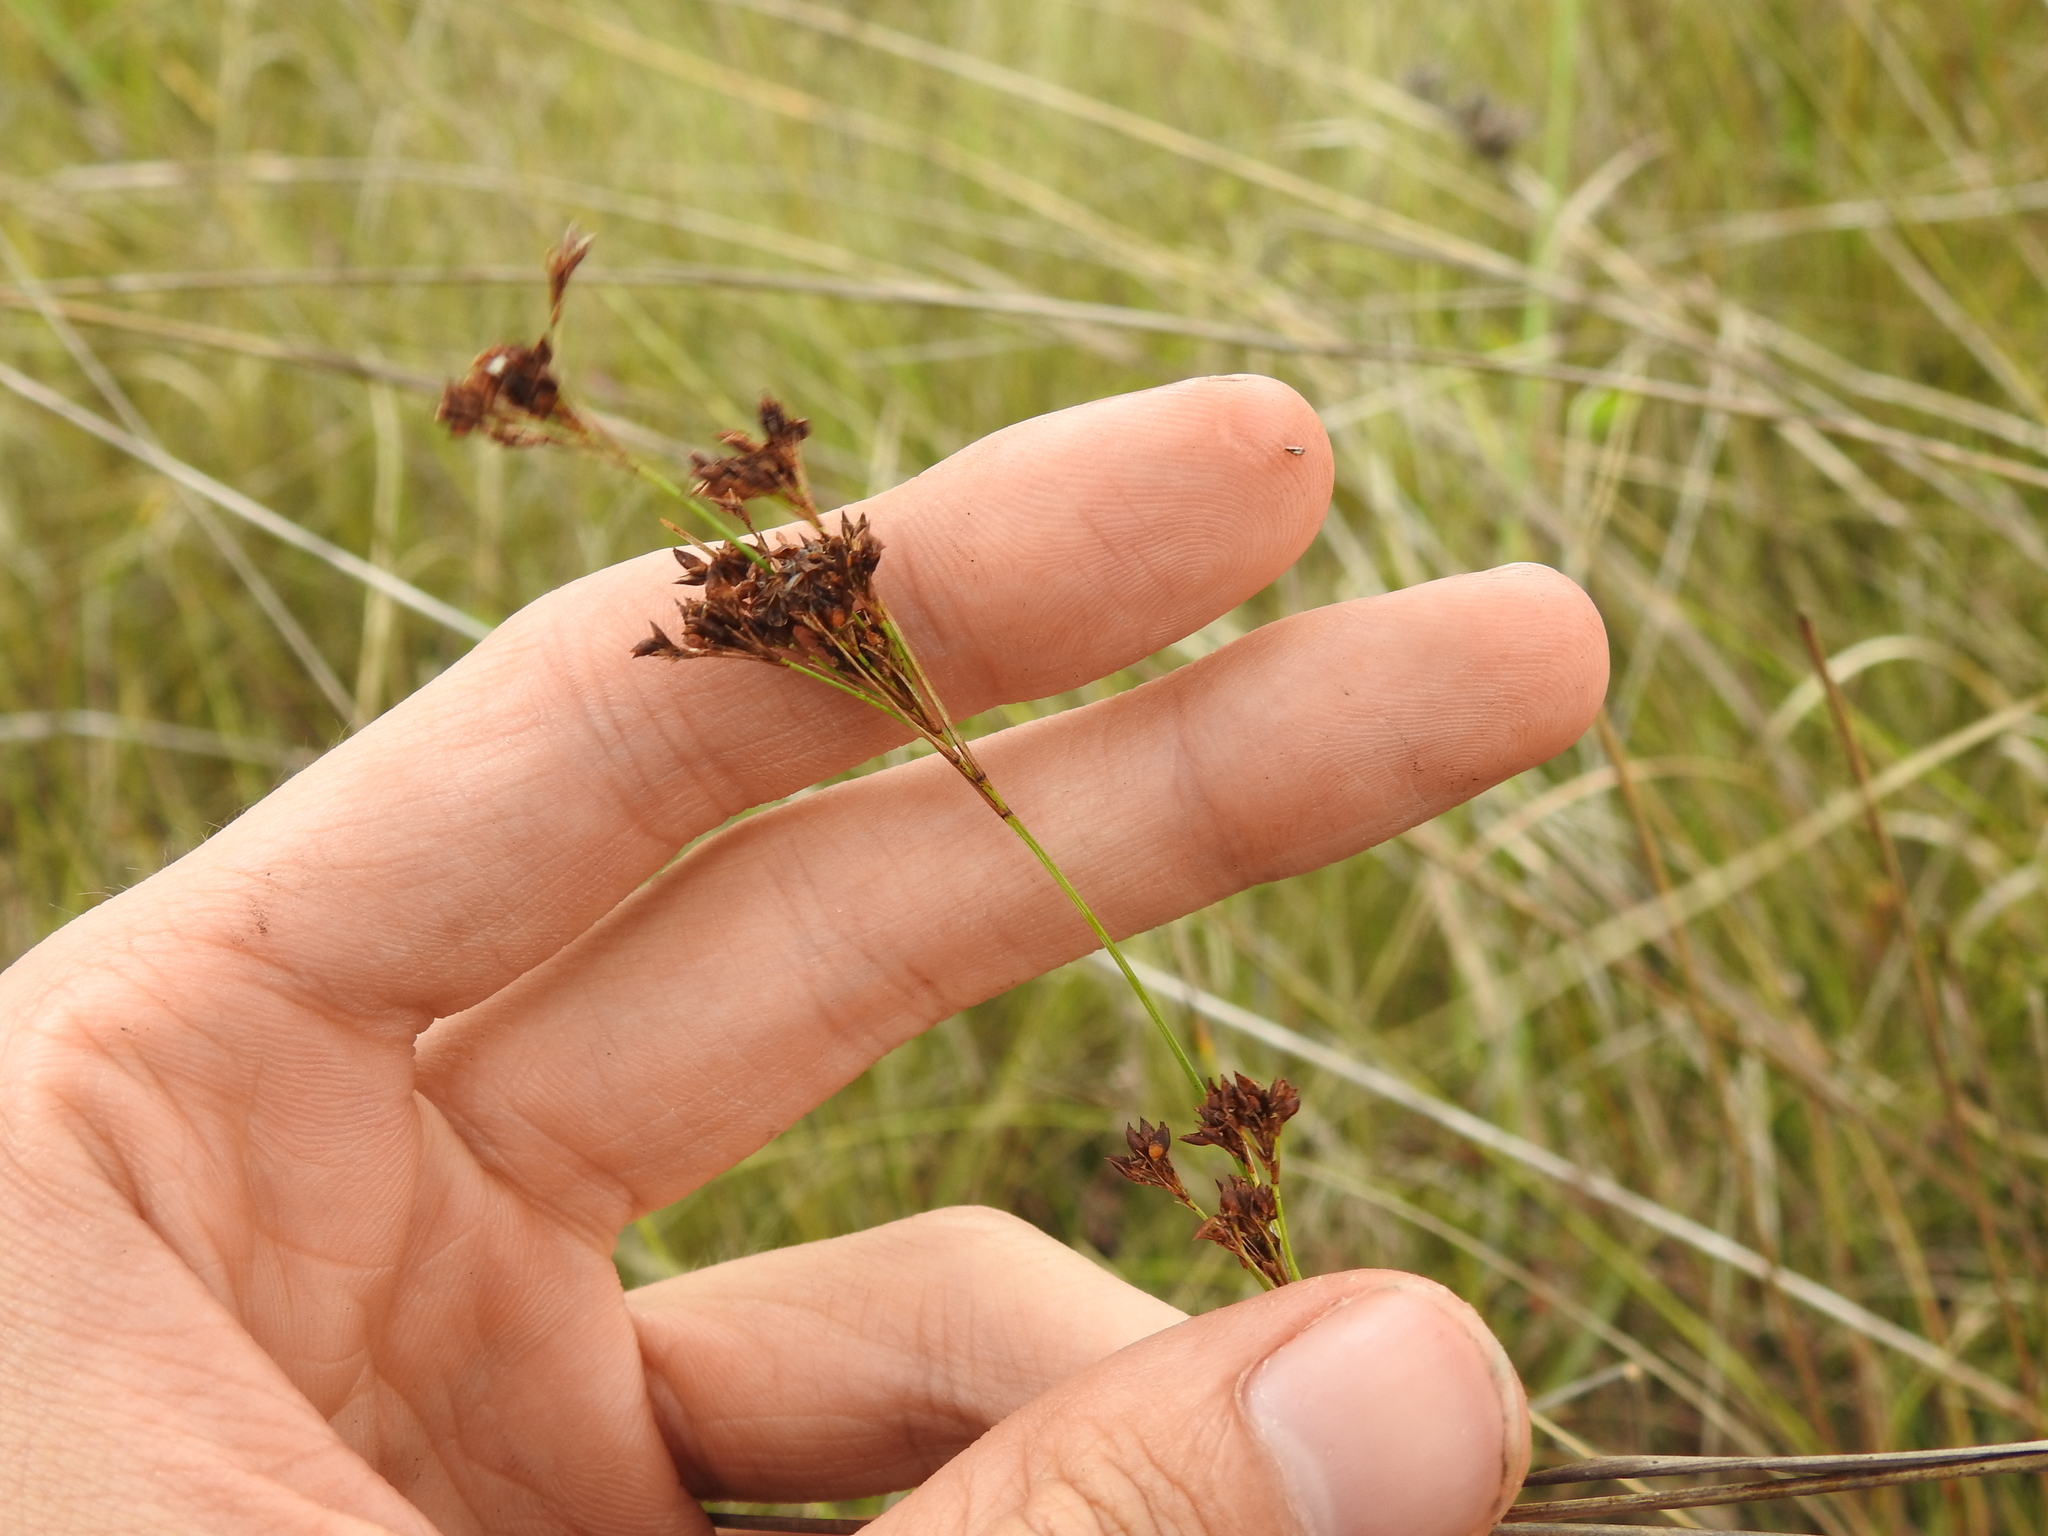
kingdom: Plantae
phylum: Tracheophyta
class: Liliopsida
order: Poales
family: Cyperaceae
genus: Rhynchospora
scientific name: Rhynchospora microcarpa
